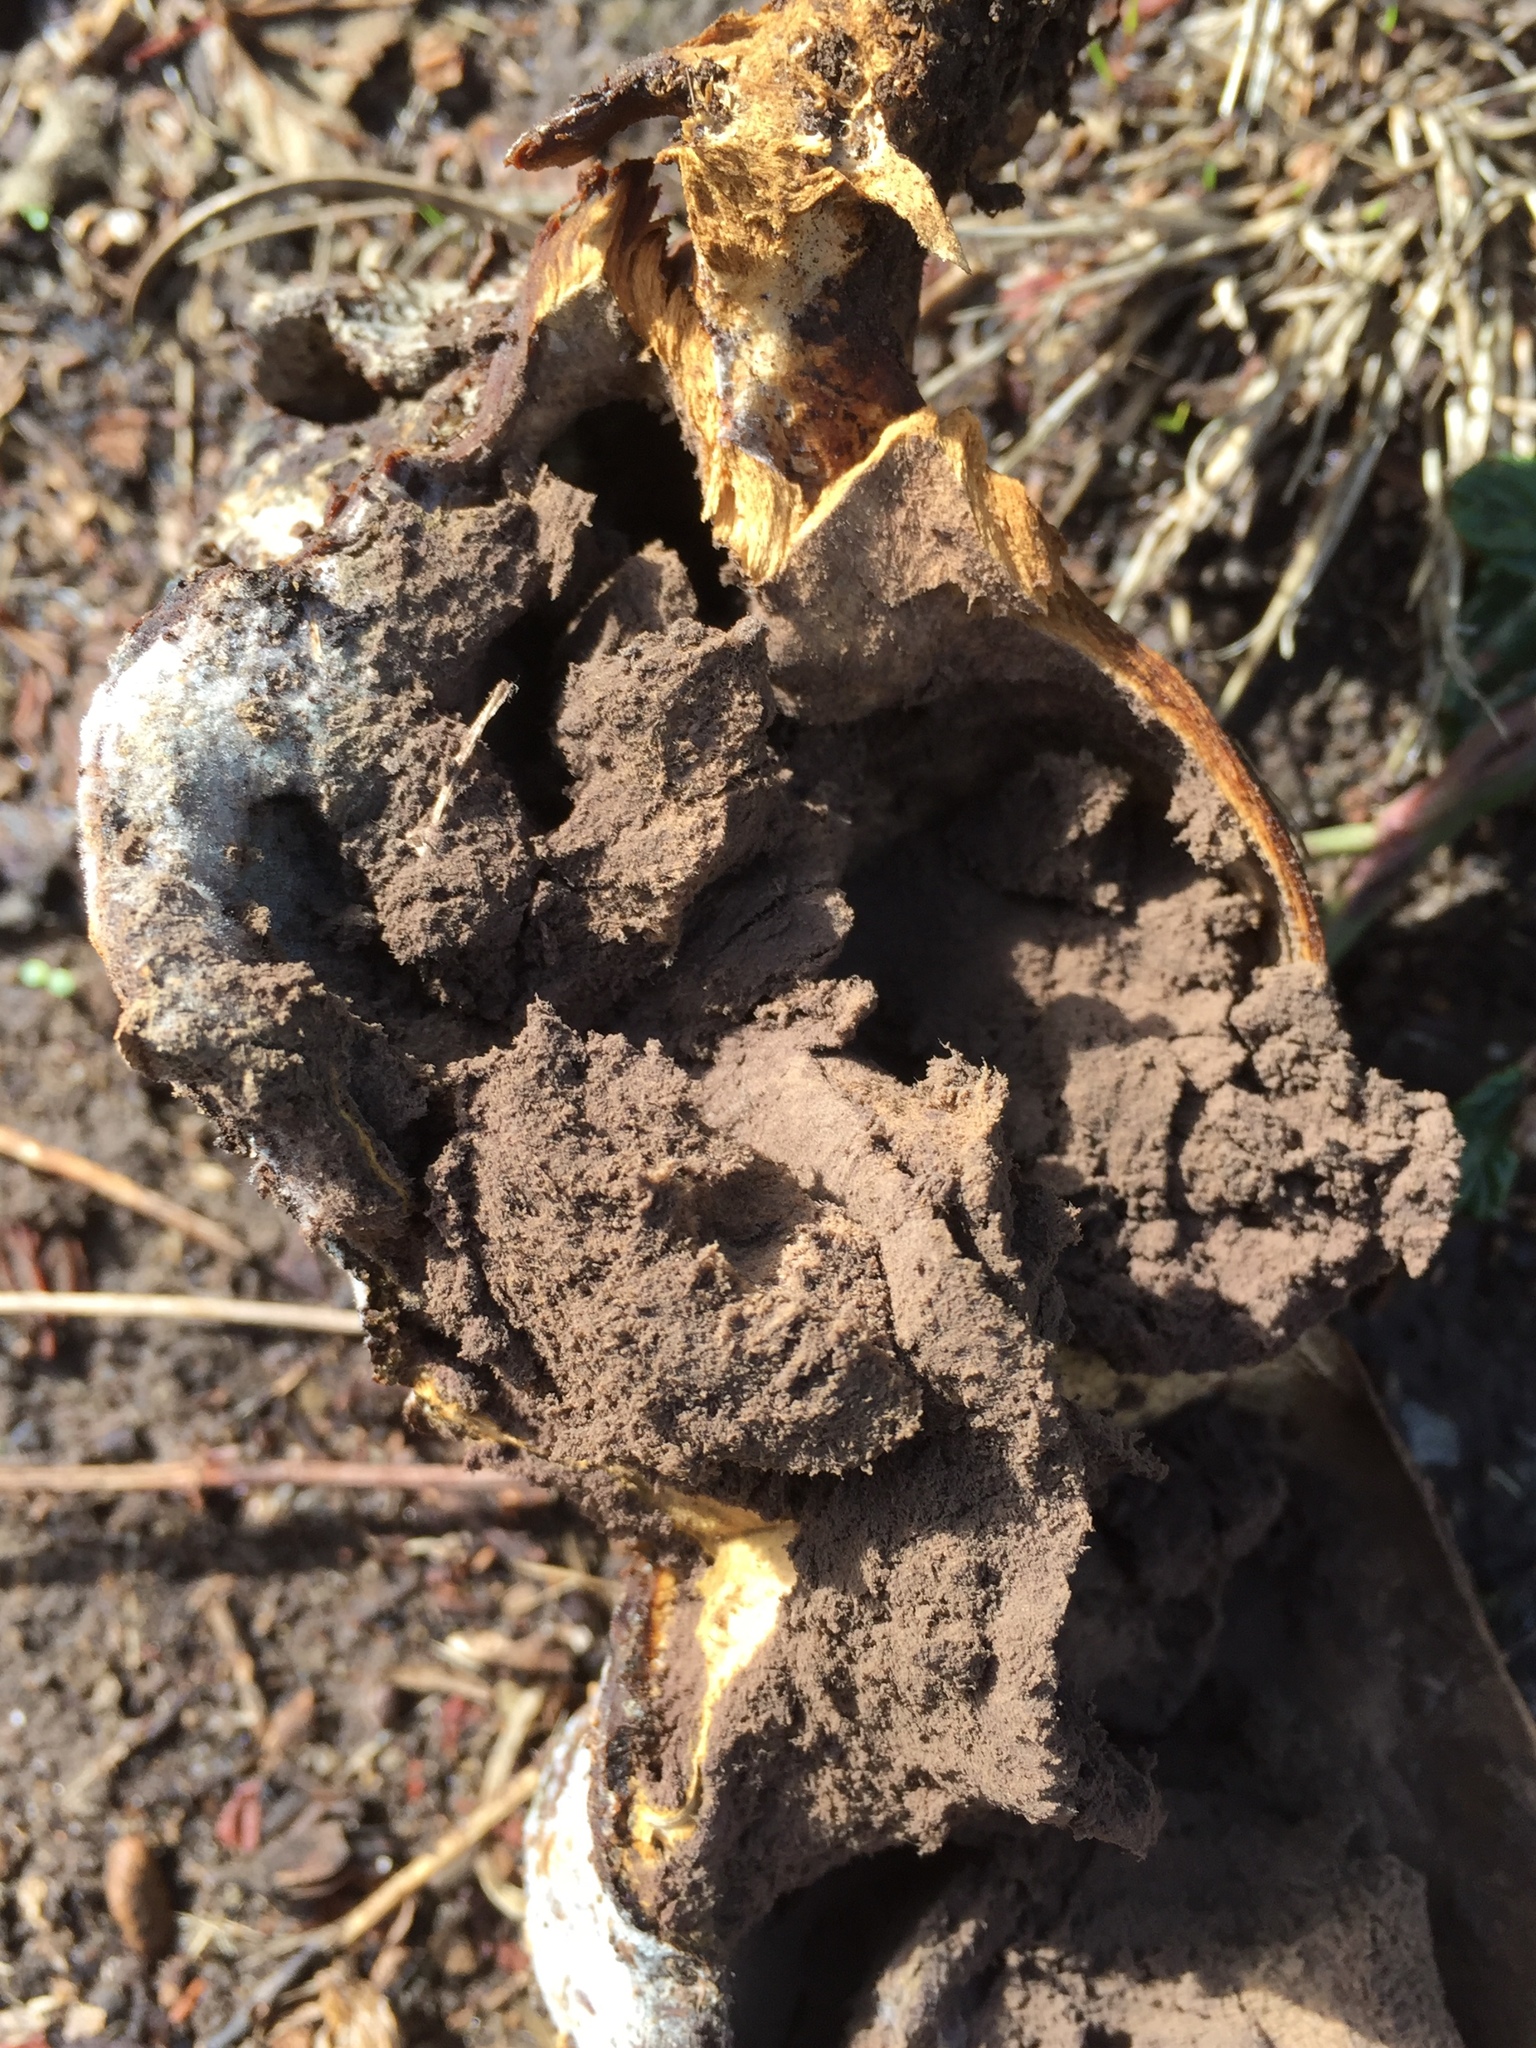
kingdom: Fungi
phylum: Basidiomycota
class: Agaricomycetes
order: Boletales
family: Sclerodermataceae
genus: Pisolithus
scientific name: Pisolithus arhizus
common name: Dyeball
